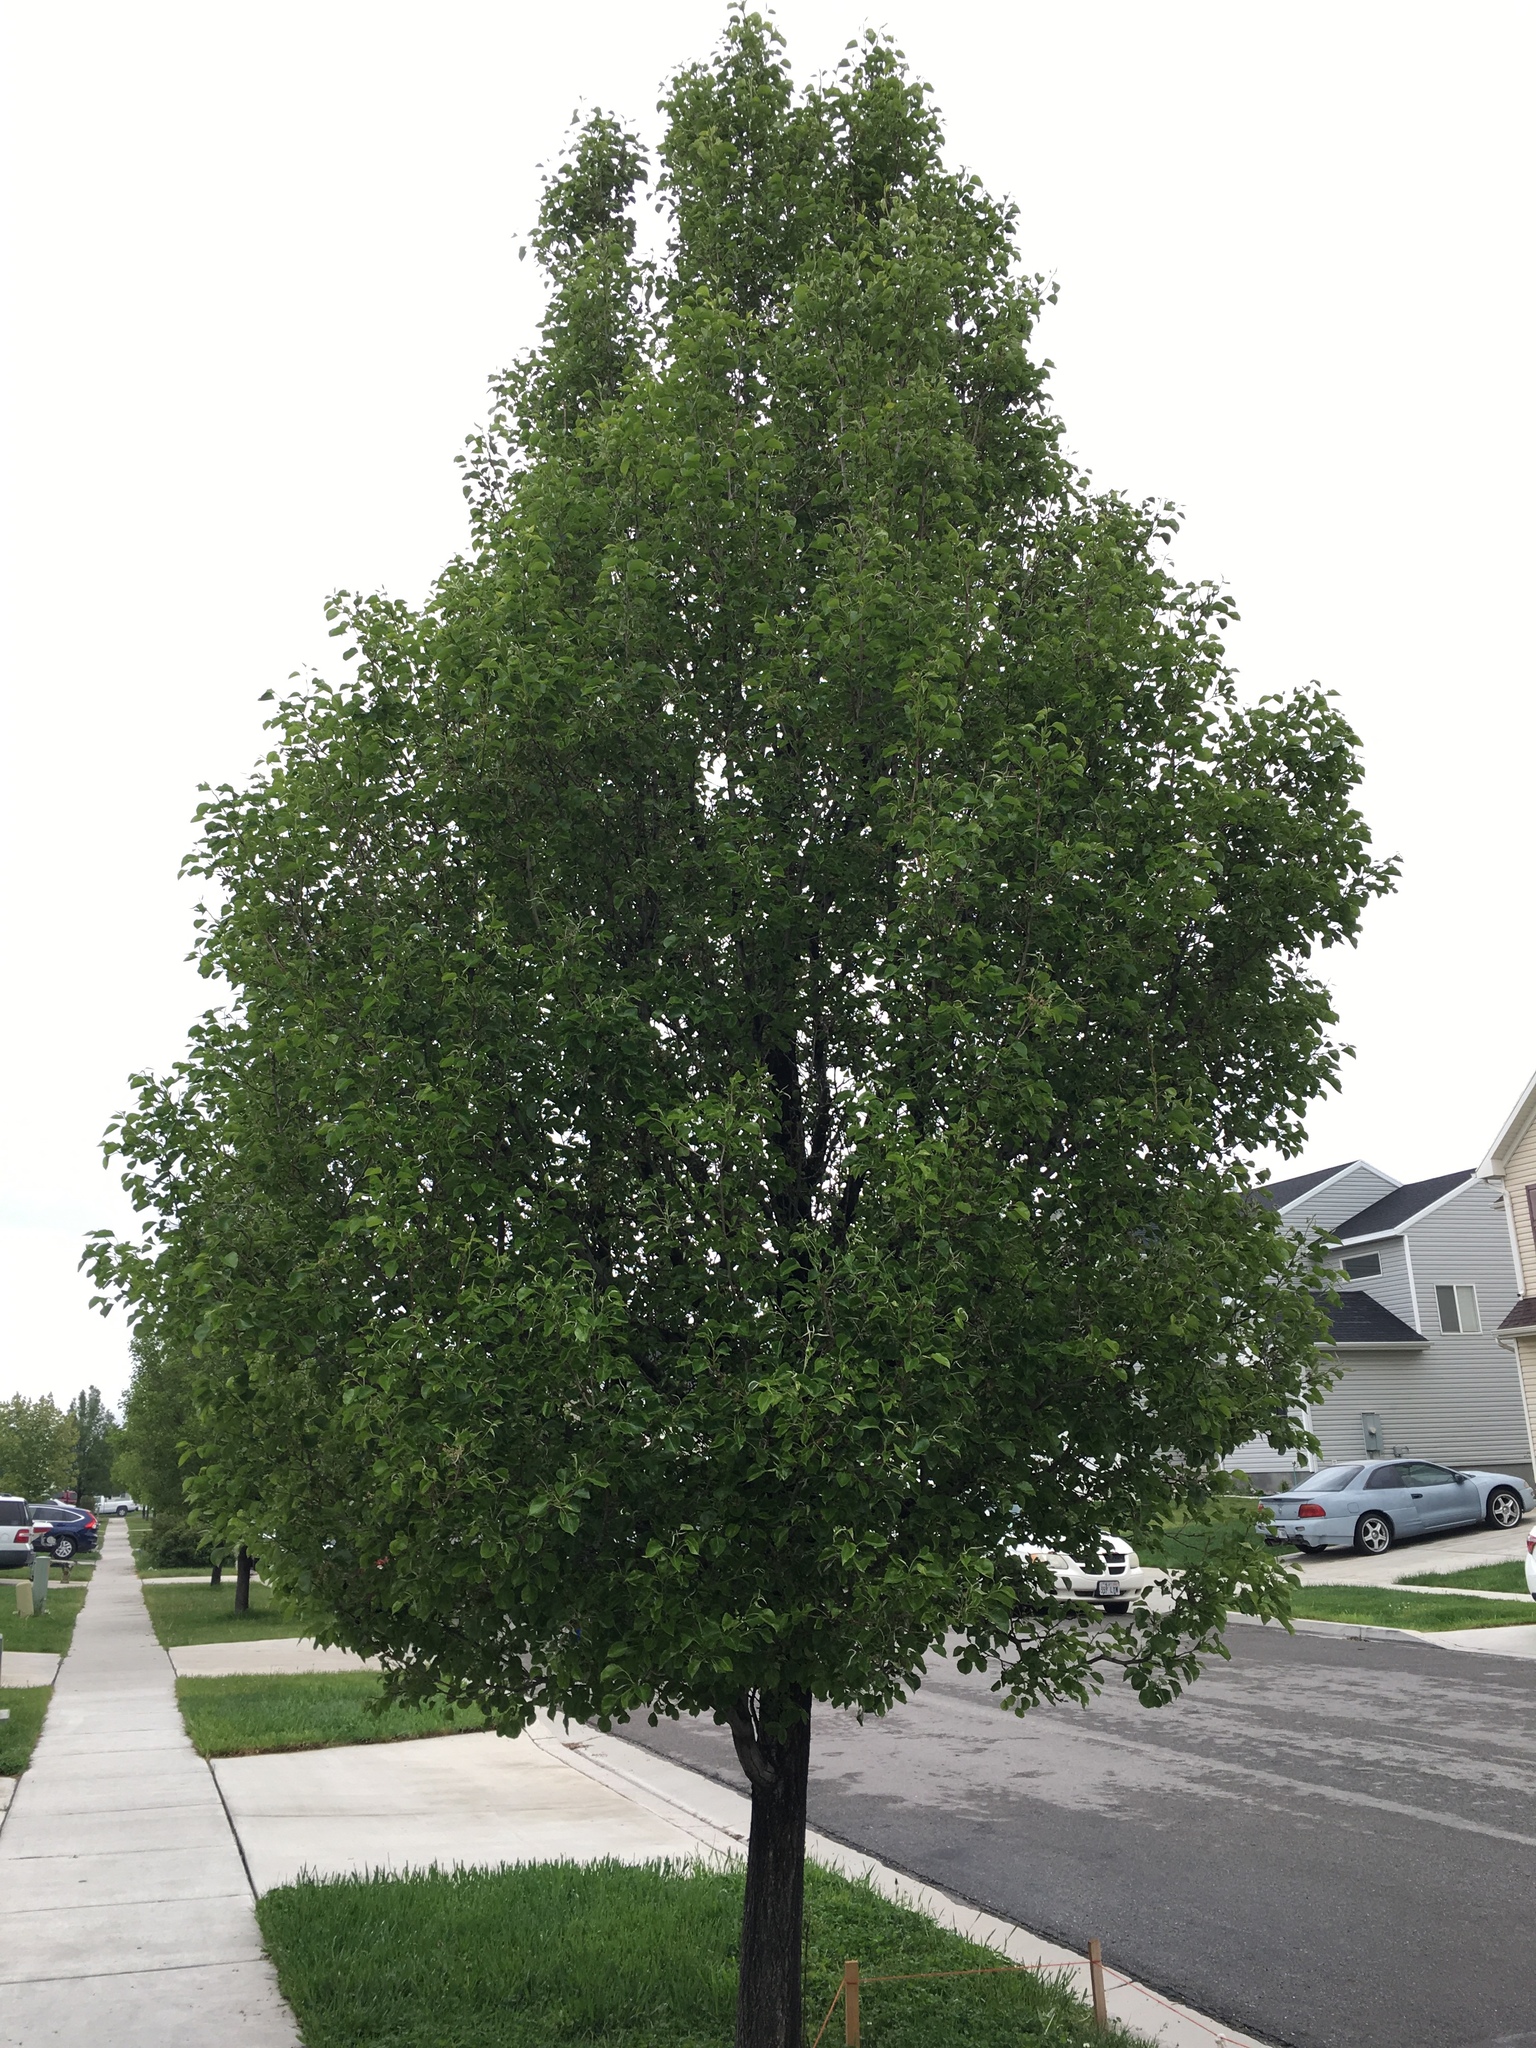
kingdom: Plantae
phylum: Tracheophyta
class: Magnoliopsida
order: Rosales
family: Rosaceae
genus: Pyrus
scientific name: Pyrus calleryana
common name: Callery pear
